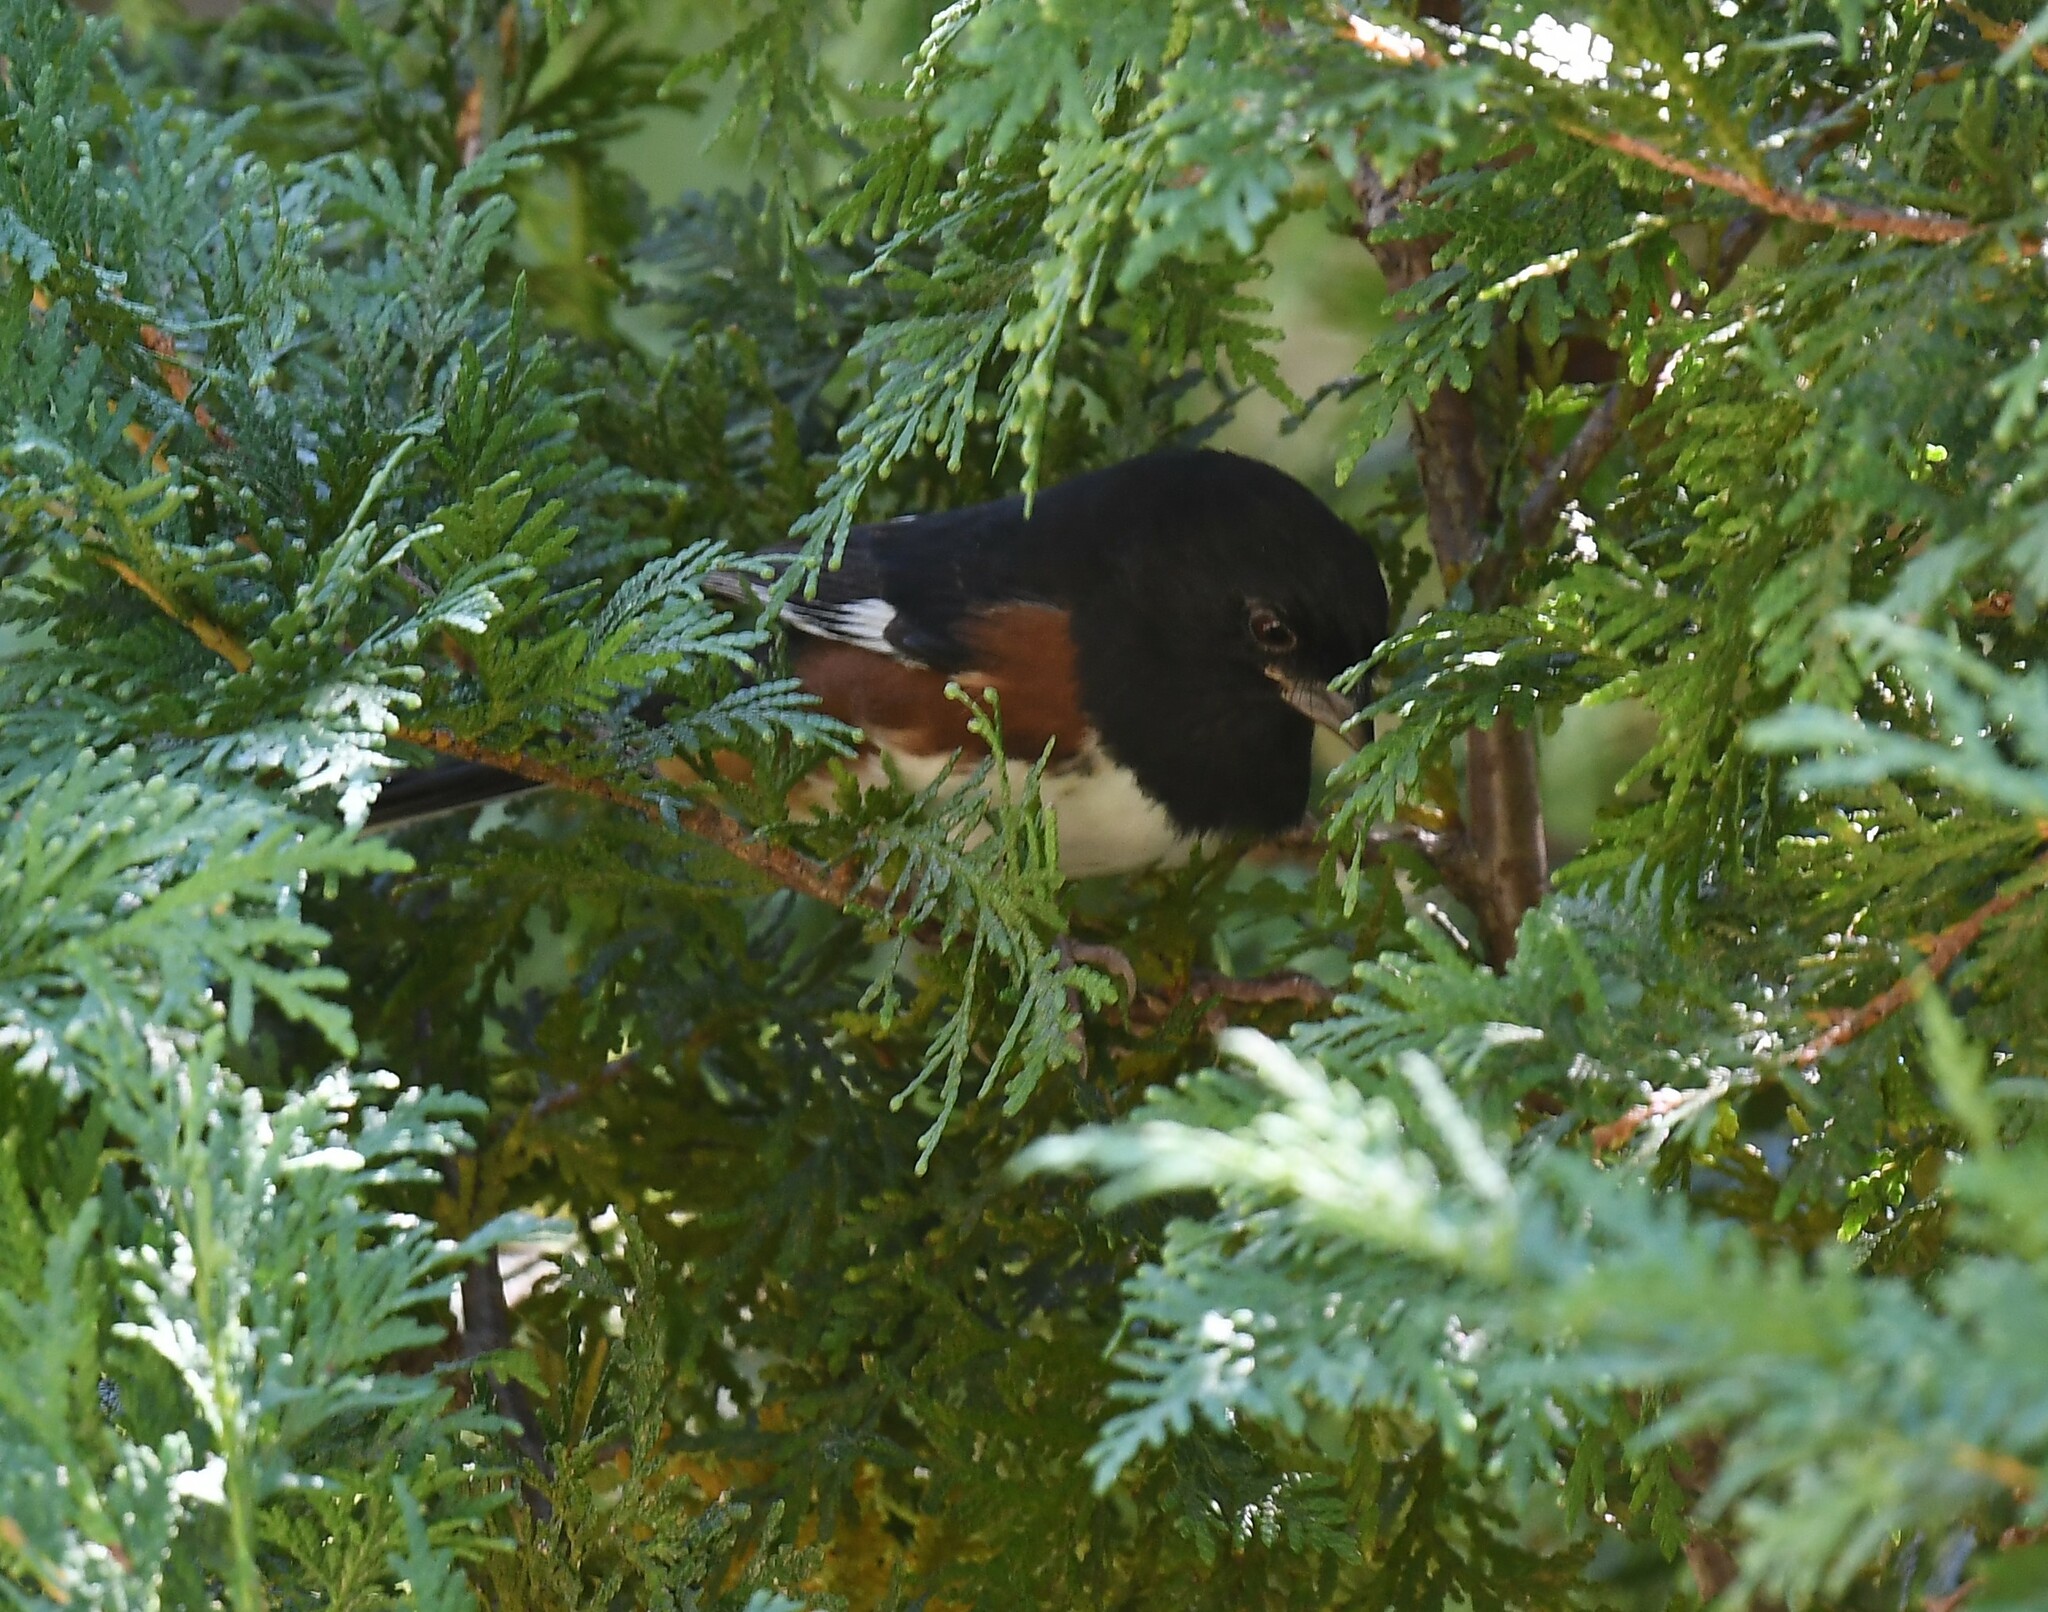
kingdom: Animalia
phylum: Chordata
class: Aves
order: Passeriformes
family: Passerellidae
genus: Pipilo
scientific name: Pipilo erythrophthalmus
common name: Eastern towhee
